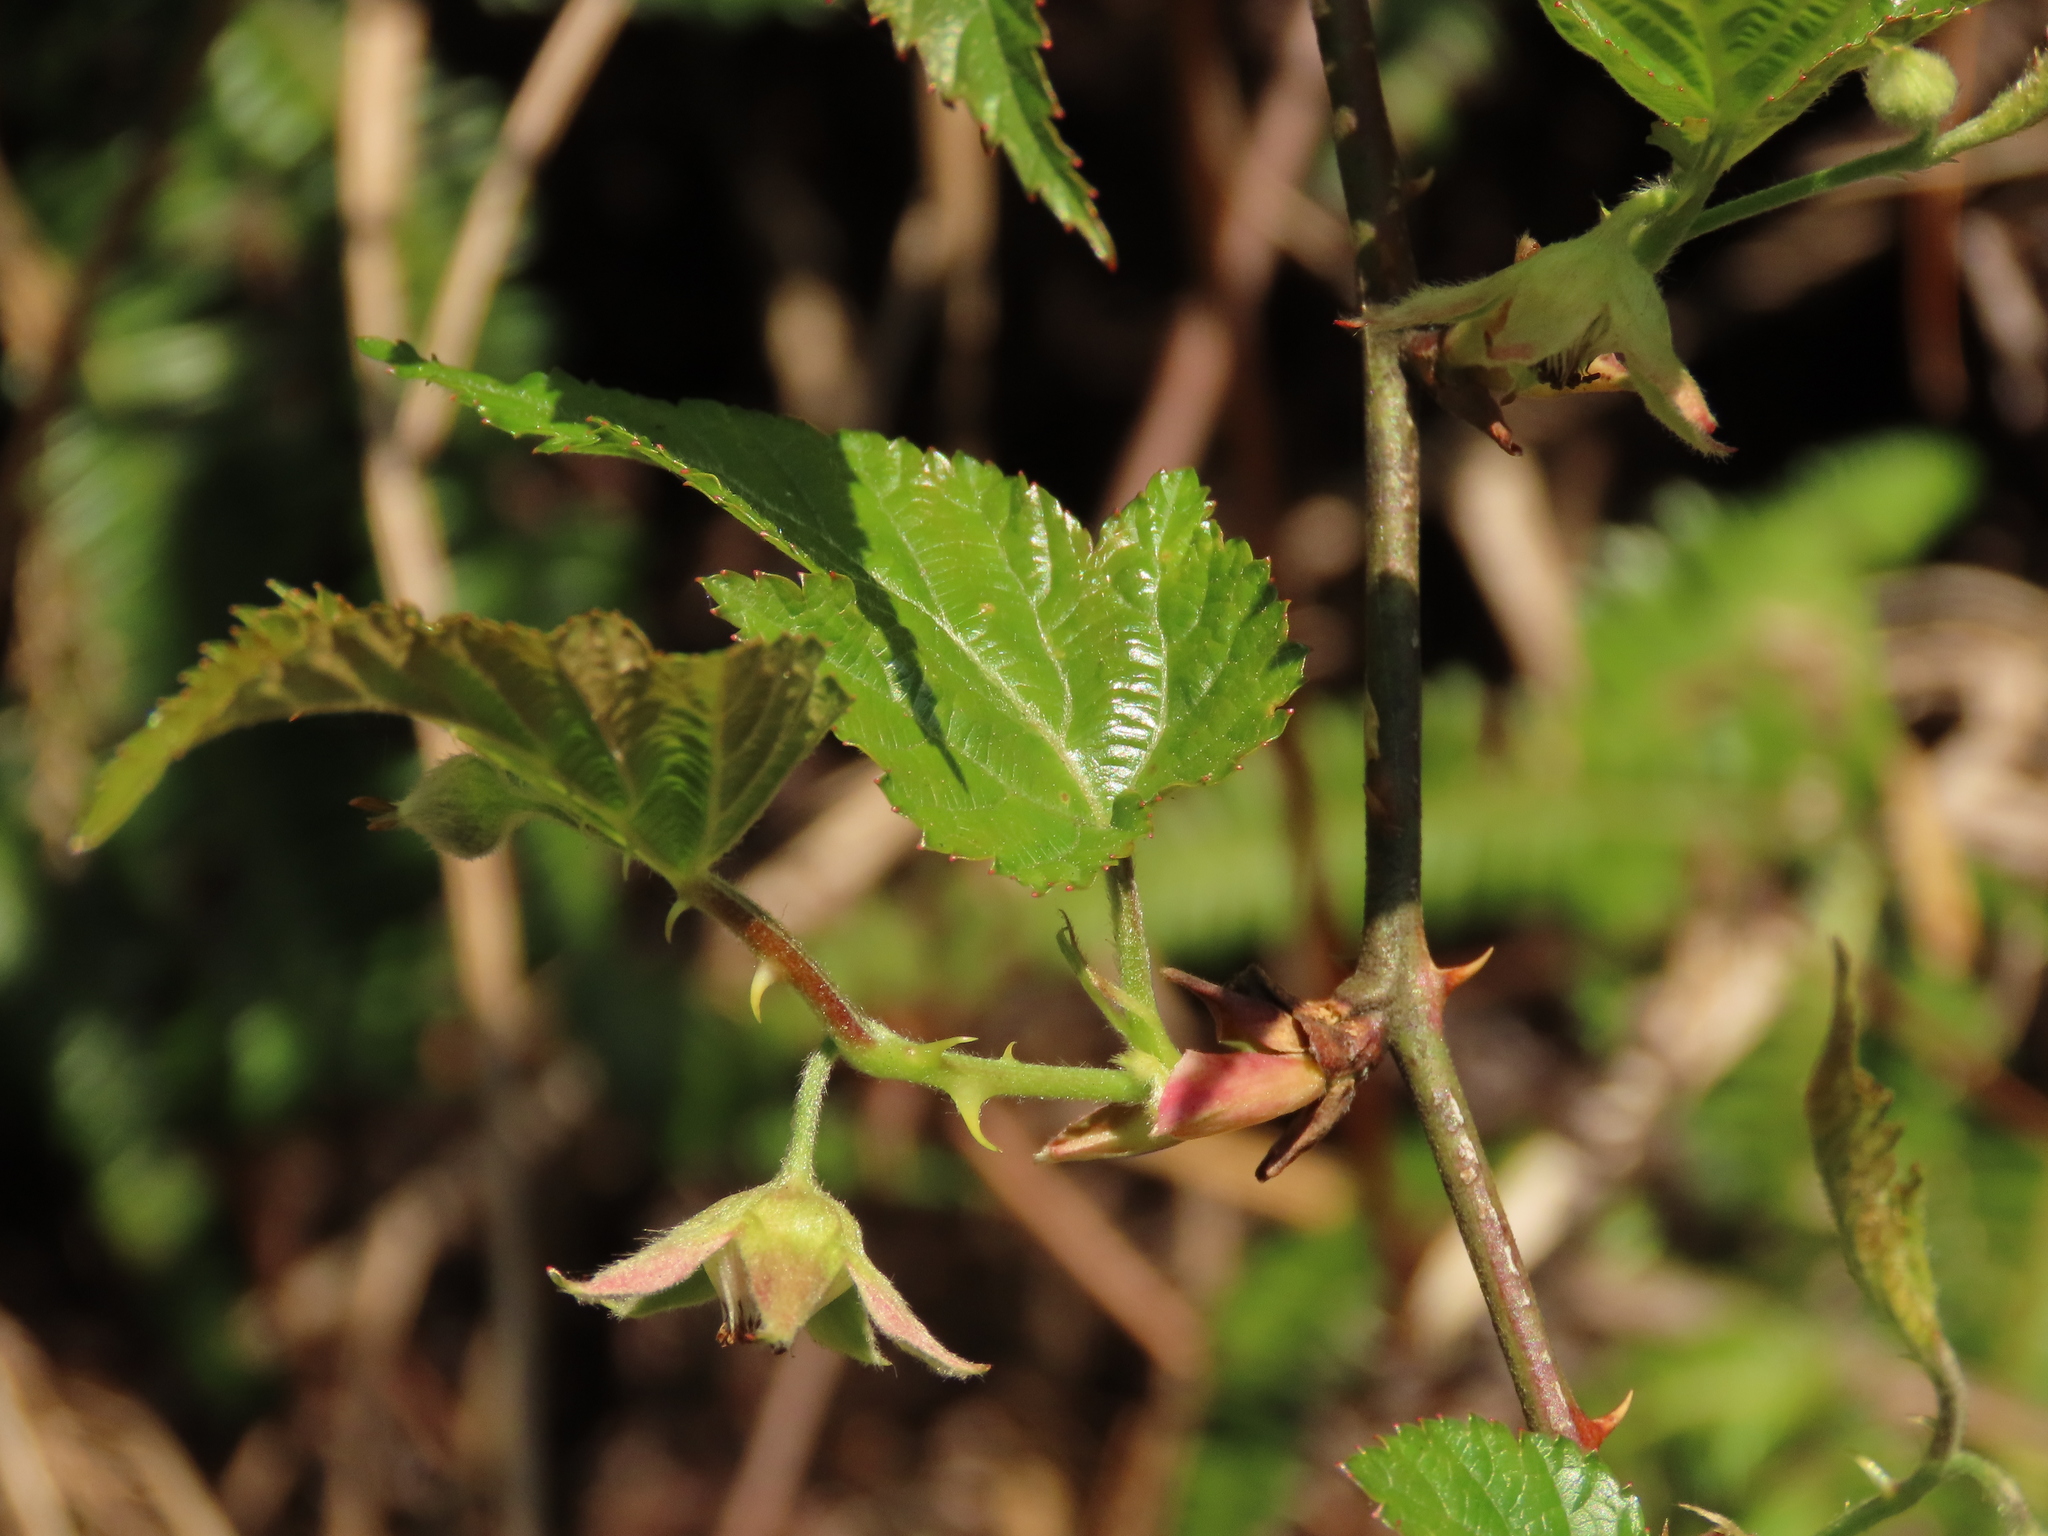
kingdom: Plantae
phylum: Tracheophyta
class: Magnoliopsida
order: Rosales
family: Rosaceae
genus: Rubus
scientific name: Rubus corchorifolius
